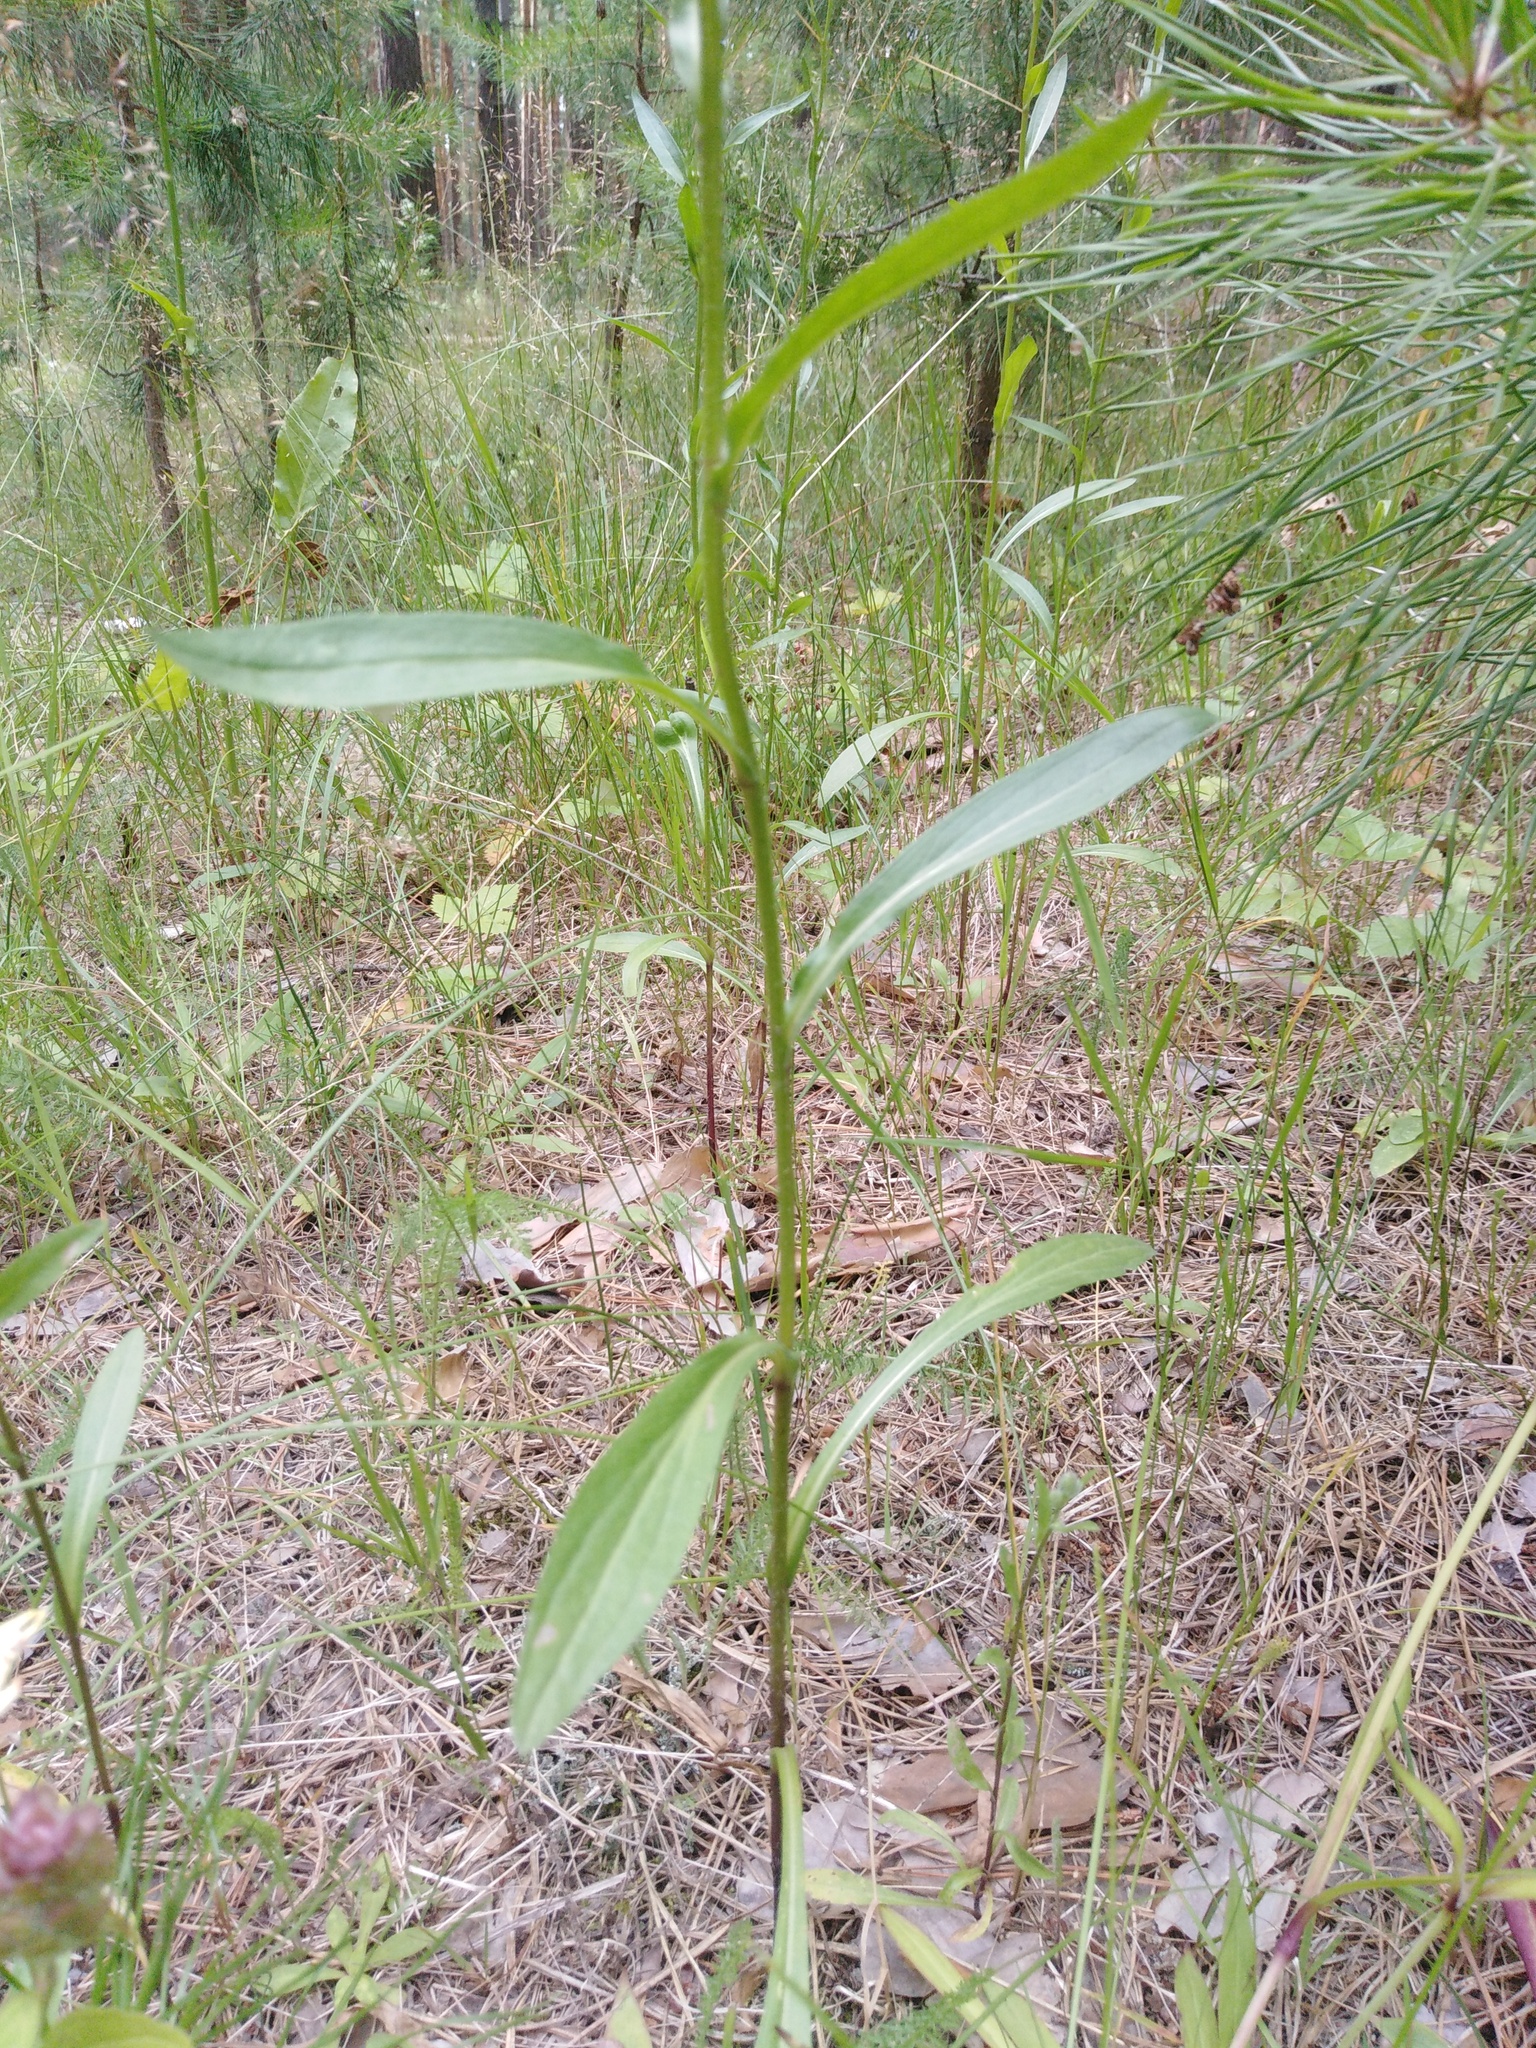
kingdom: Plantae
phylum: Tracheophyta
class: Magnoliopsida
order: Asterales
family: Asteraceae
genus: Erigeron
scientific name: Erigeron acris
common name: Blue fleabane
